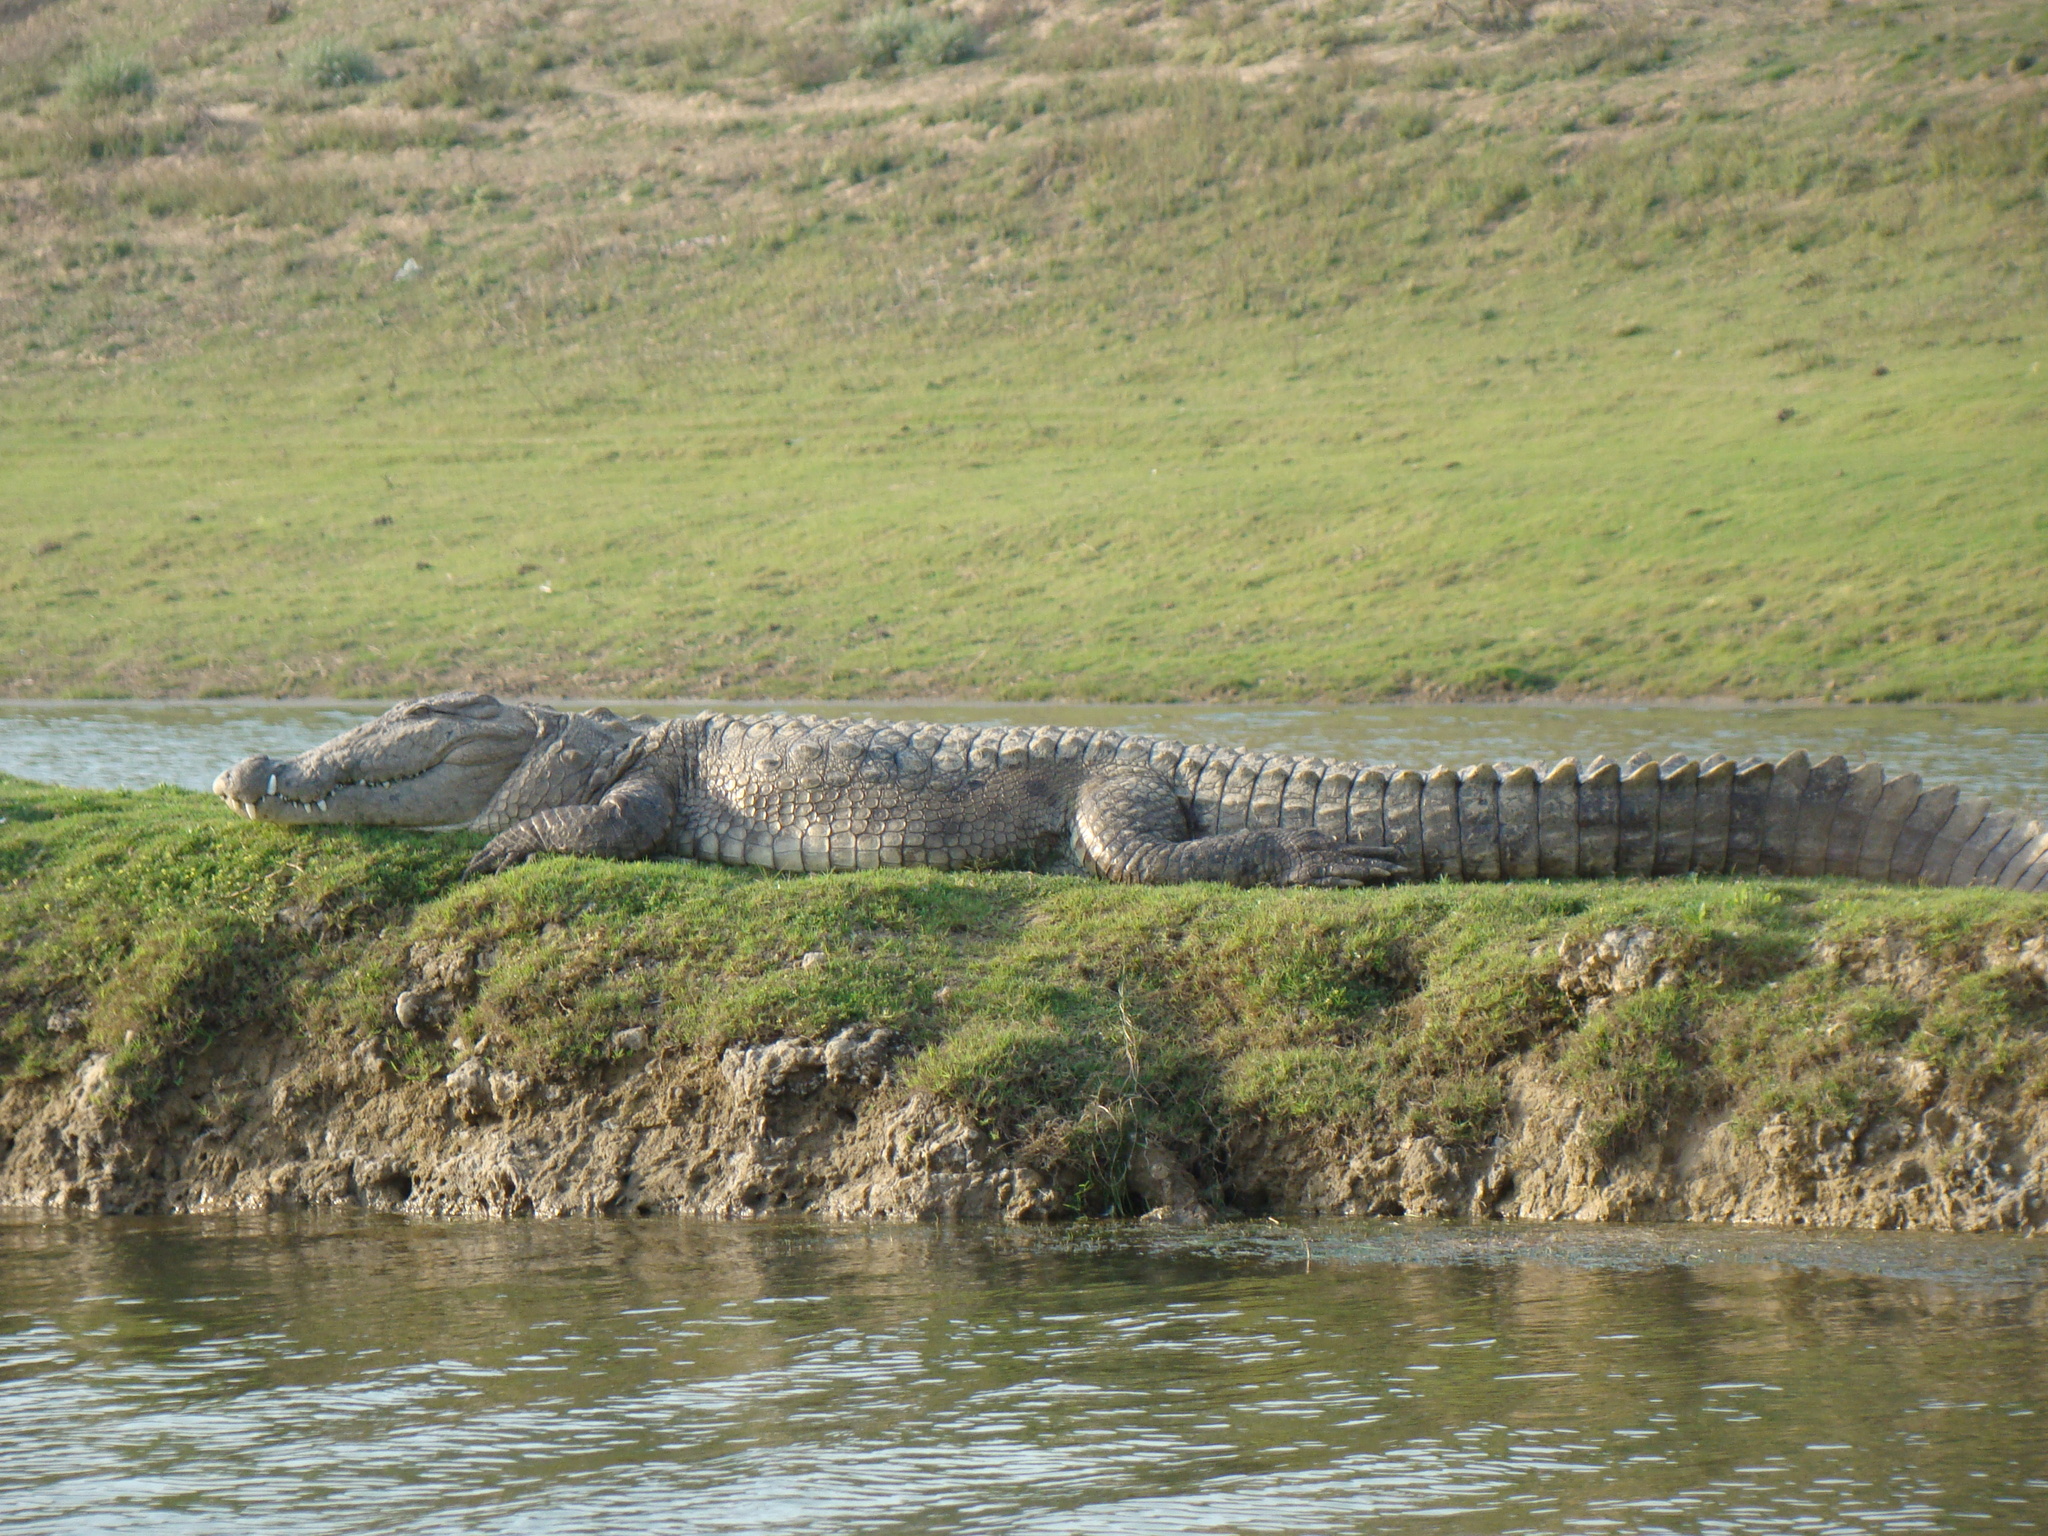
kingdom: Animalia
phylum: Chordata
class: Crocodylia
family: Crocodylidae
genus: Crocodylus
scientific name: Crocodylus palustris
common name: Mugger crocodile
